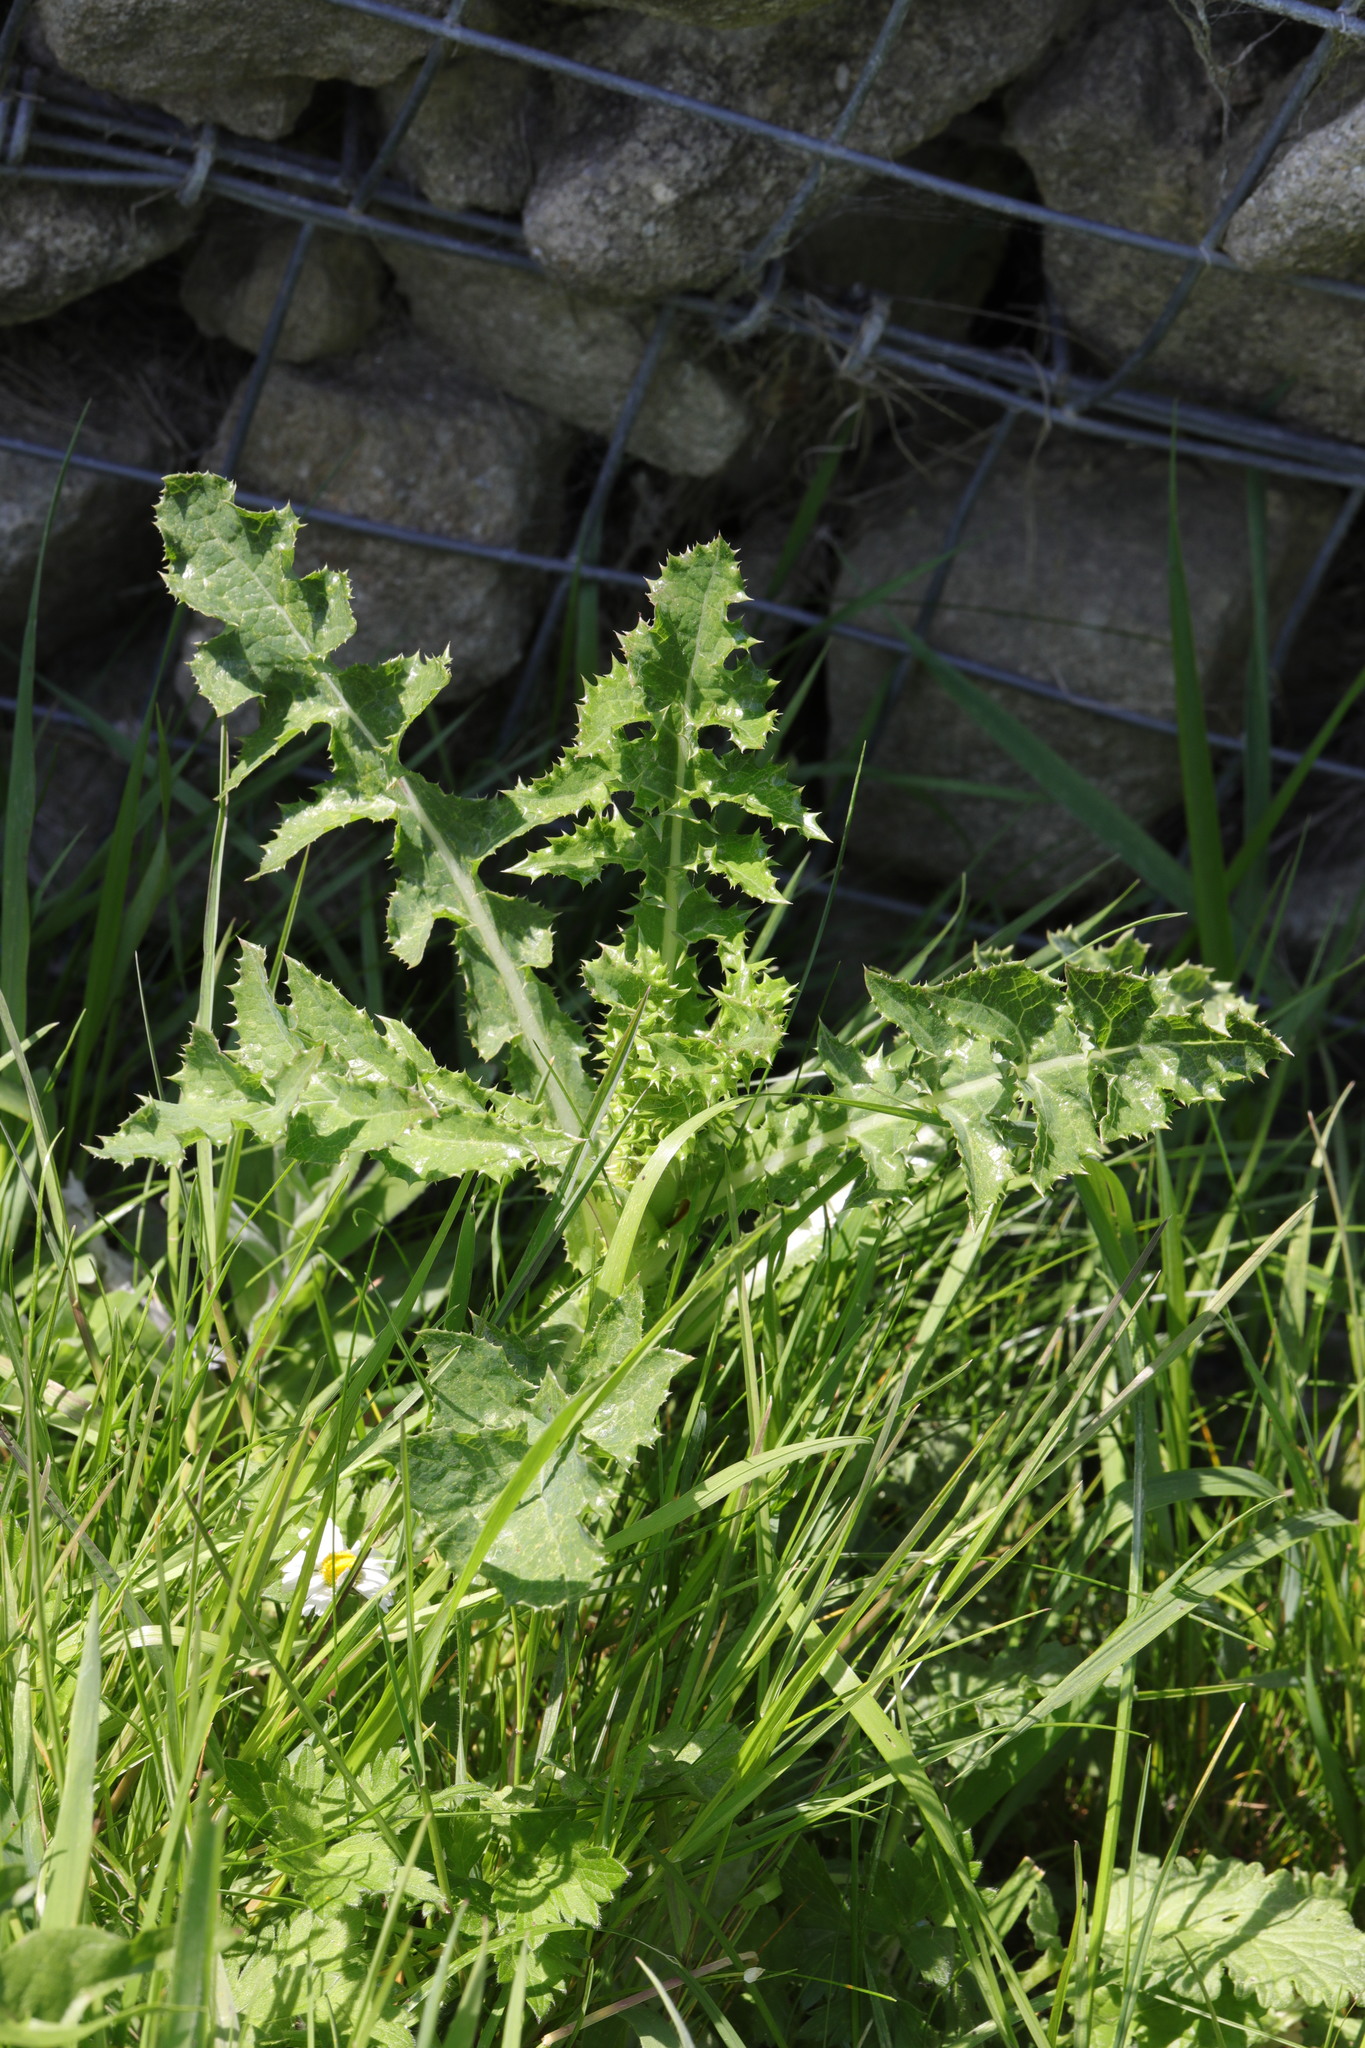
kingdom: Plantae
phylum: Tracheophyta
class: Magnoliopsida
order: Asterales
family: Asteraceae
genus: Sonchus
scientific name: Sonchus asper
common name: Prickly sow-thistle
